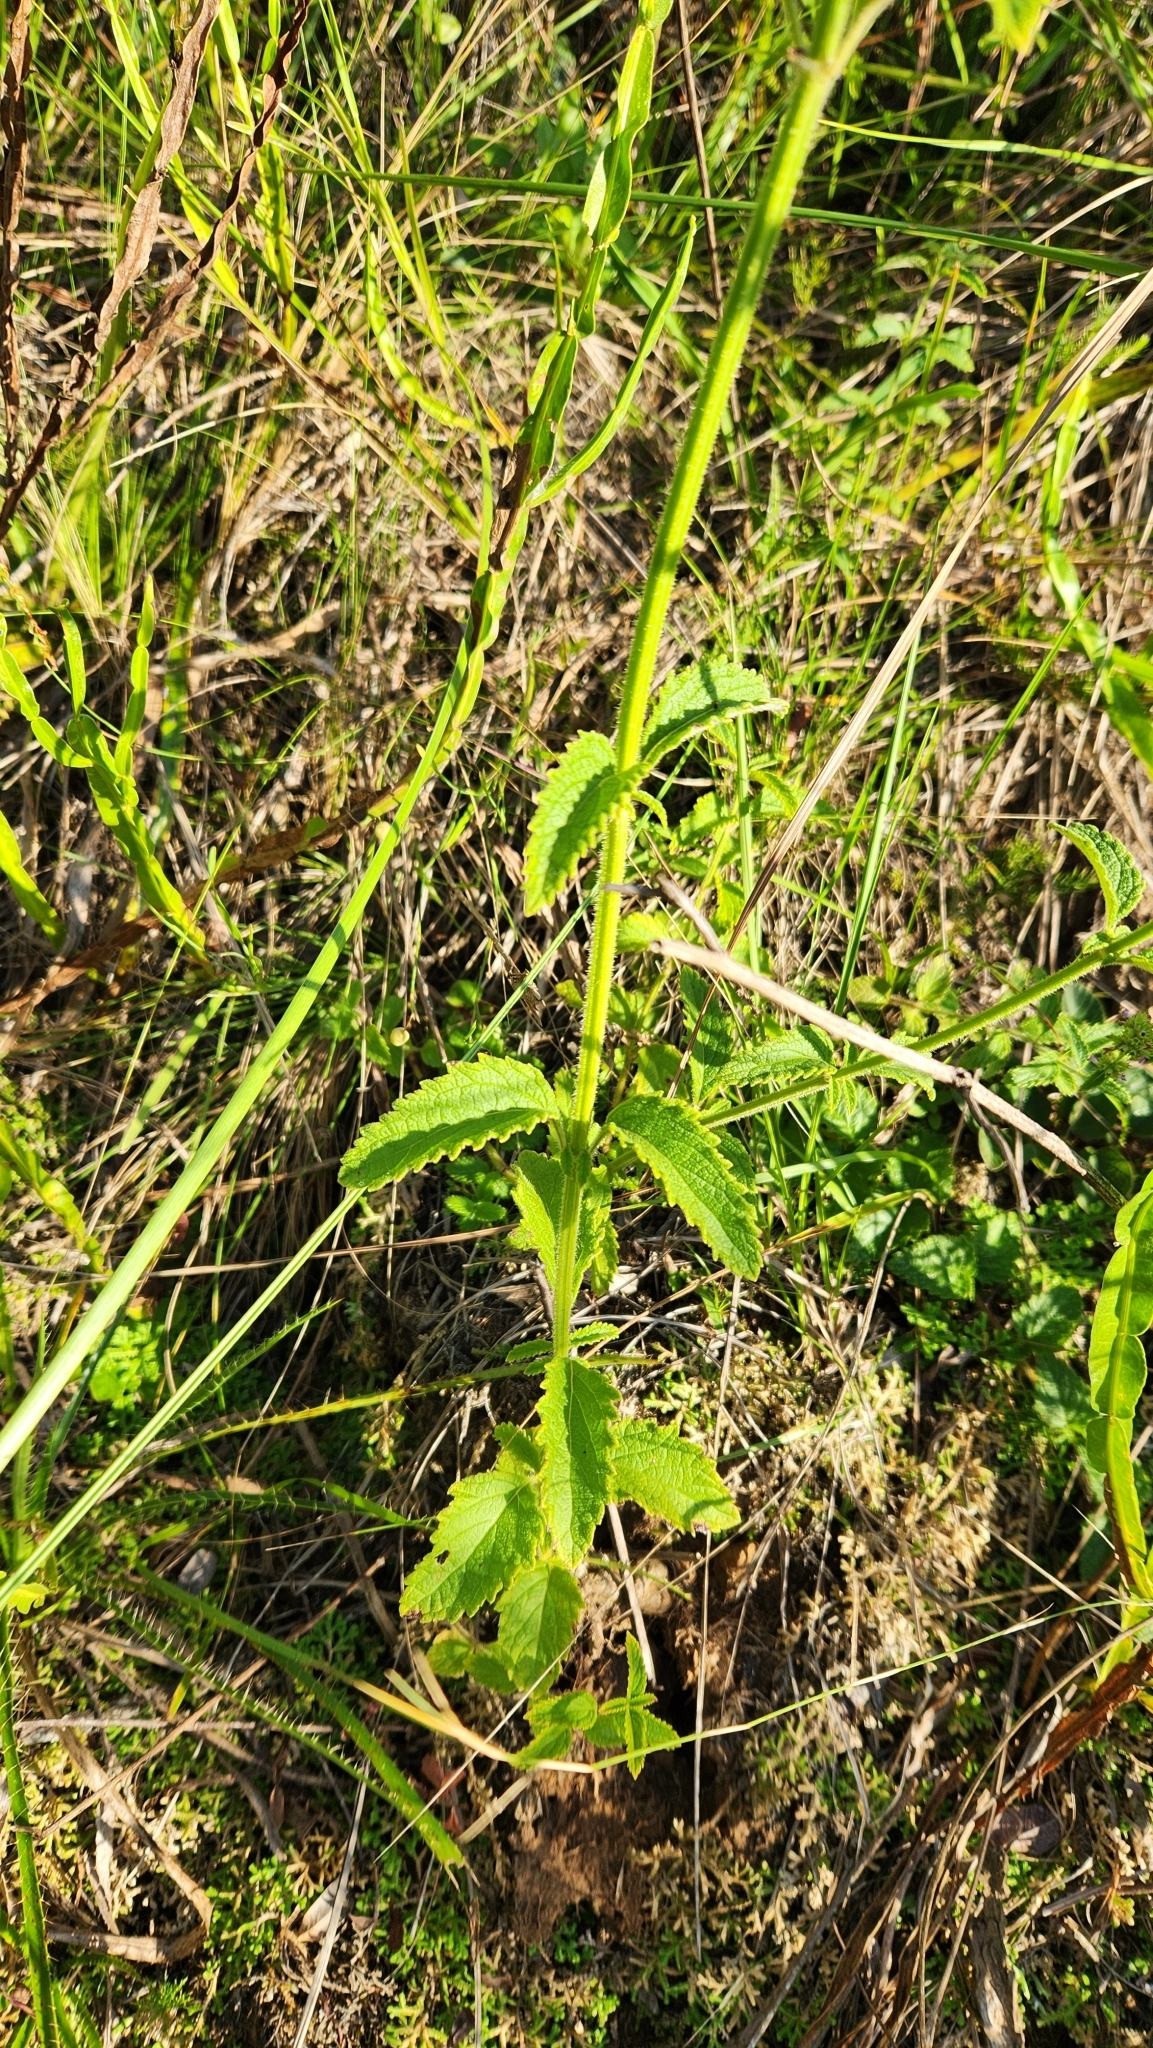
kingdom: Plantae
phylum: Tracheophyta
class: Magnoliopsida
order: Lamiales
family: Lamiaceae
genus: Cantinoa
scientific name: Cantinoa stricta
